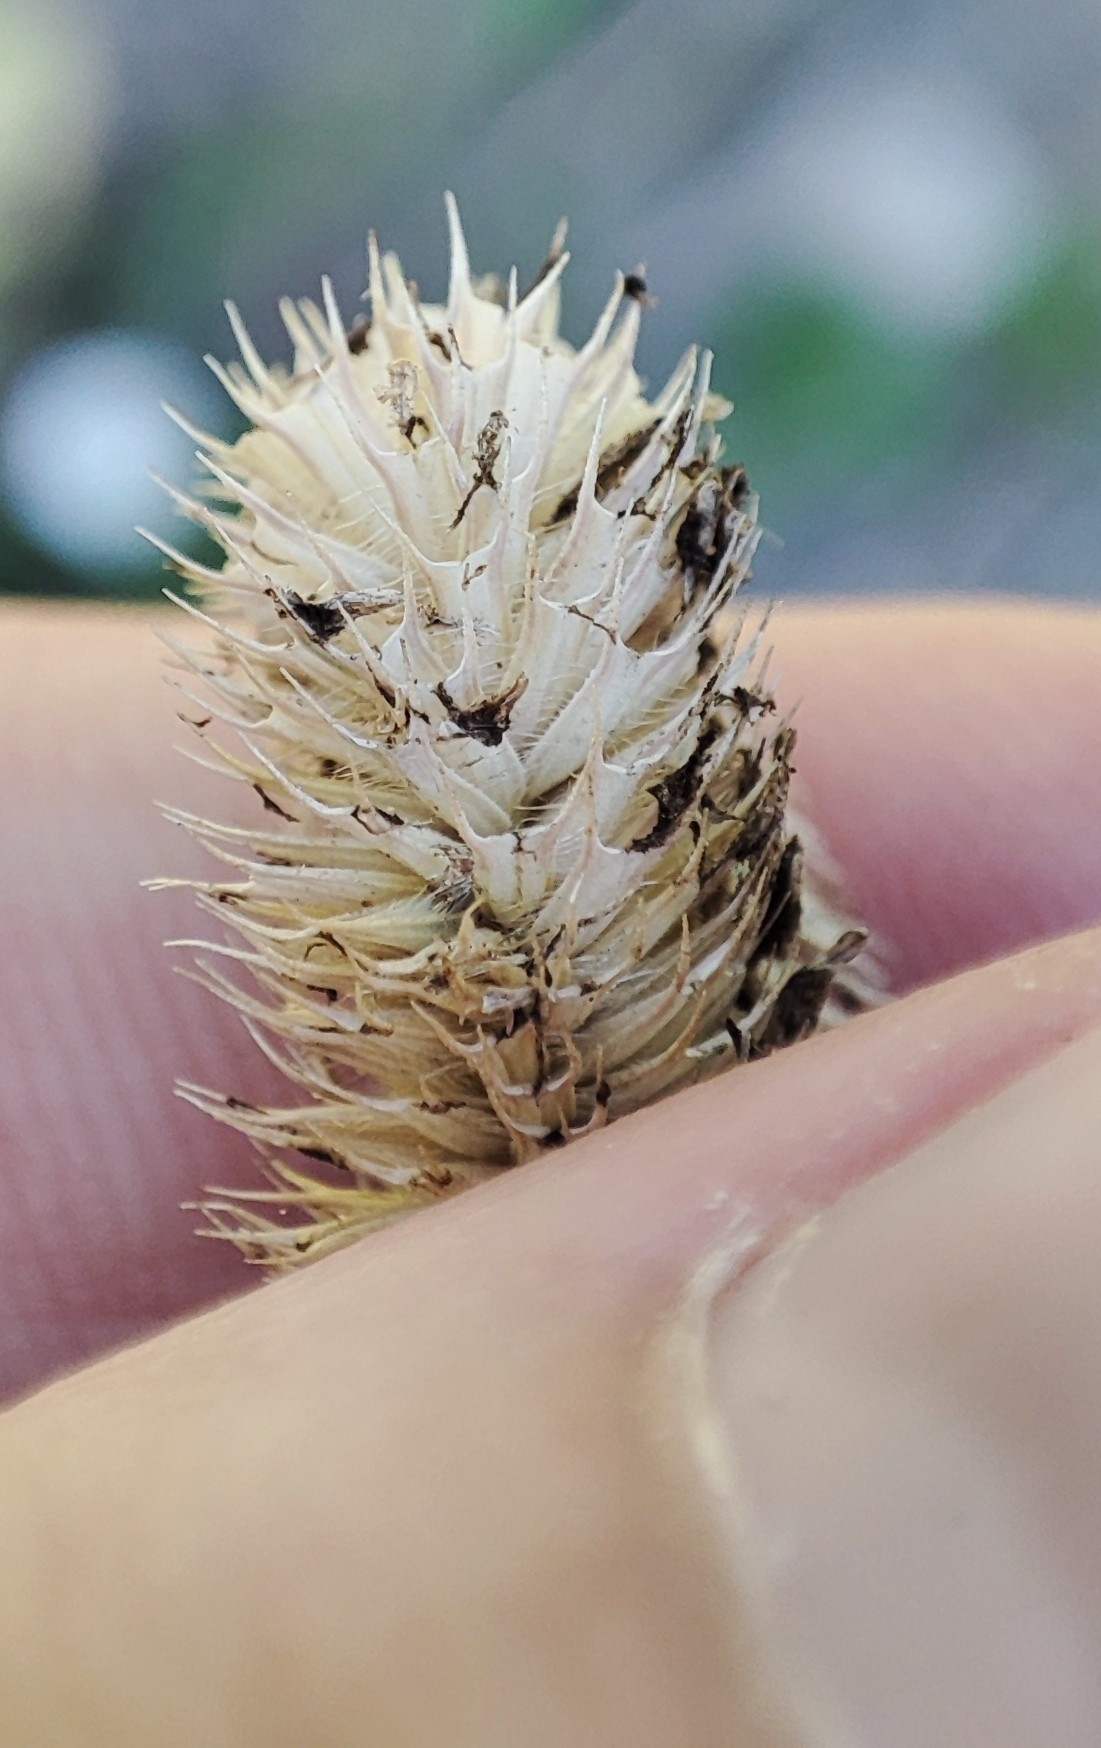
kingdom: Plantae
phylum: Tracheophyta
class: Liliopsida
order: Poales
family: Poaceae
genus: Phleum
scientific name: Phleum pratense
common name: Timothy grass
